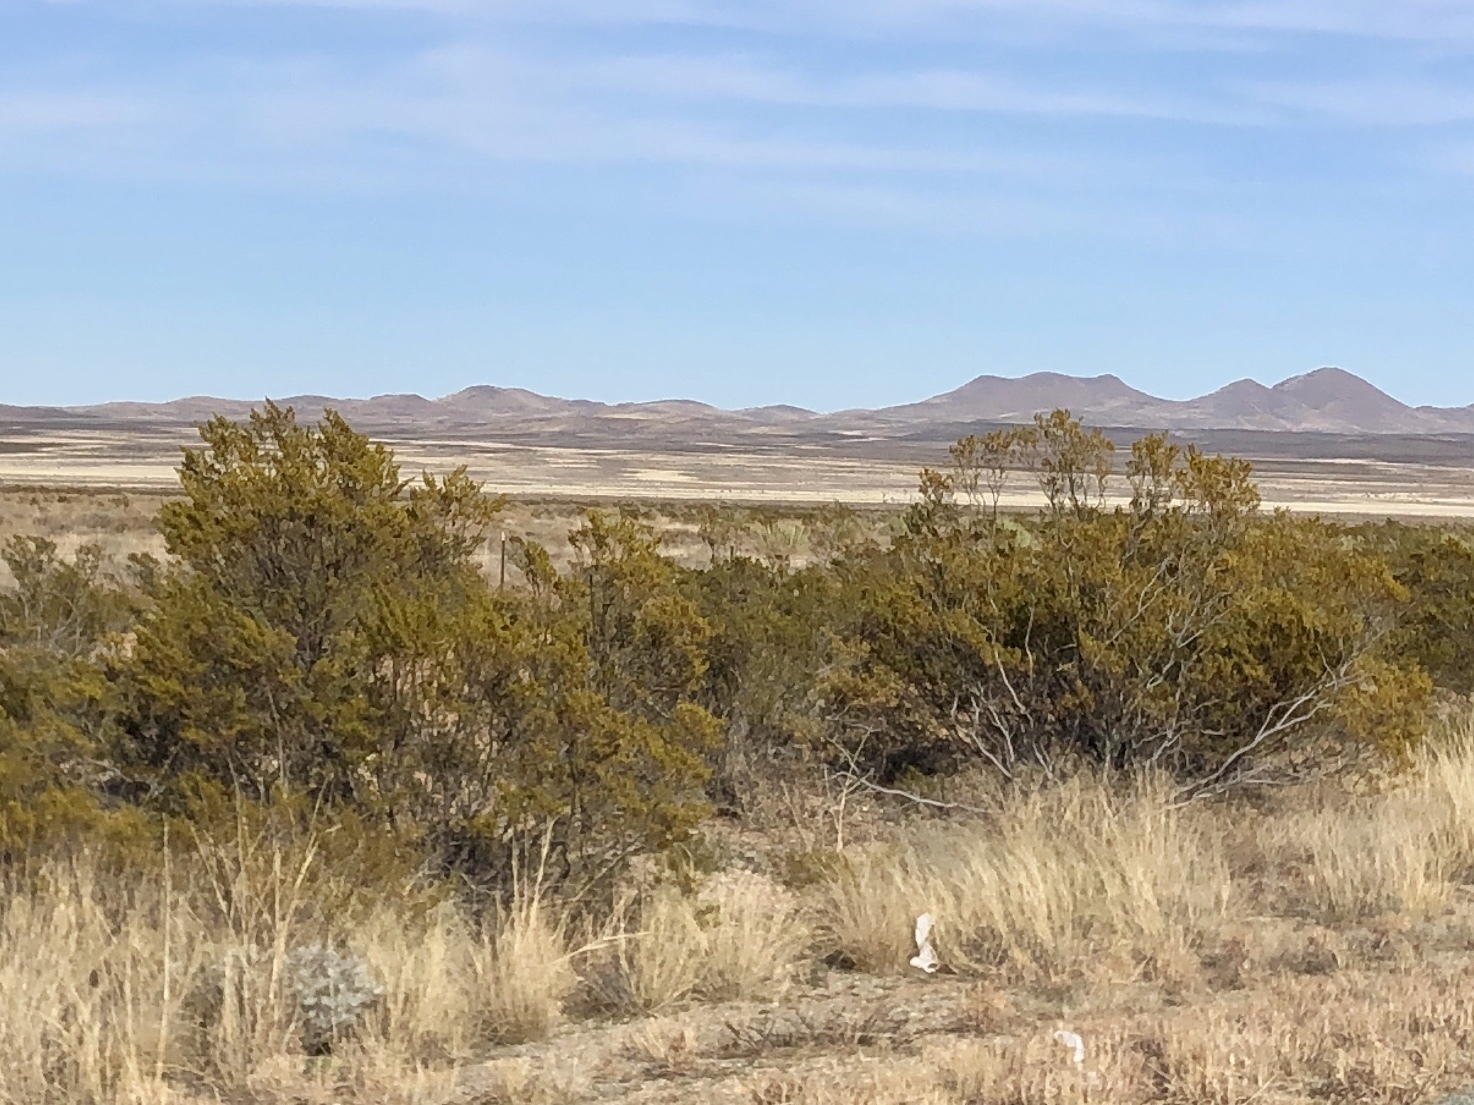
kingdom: Plantae
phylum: Tracheophyta
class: Magnoliopsida
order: Zygophyllales
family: Zygophyllaceae
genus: Larrea
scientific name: Larrea tridentata
